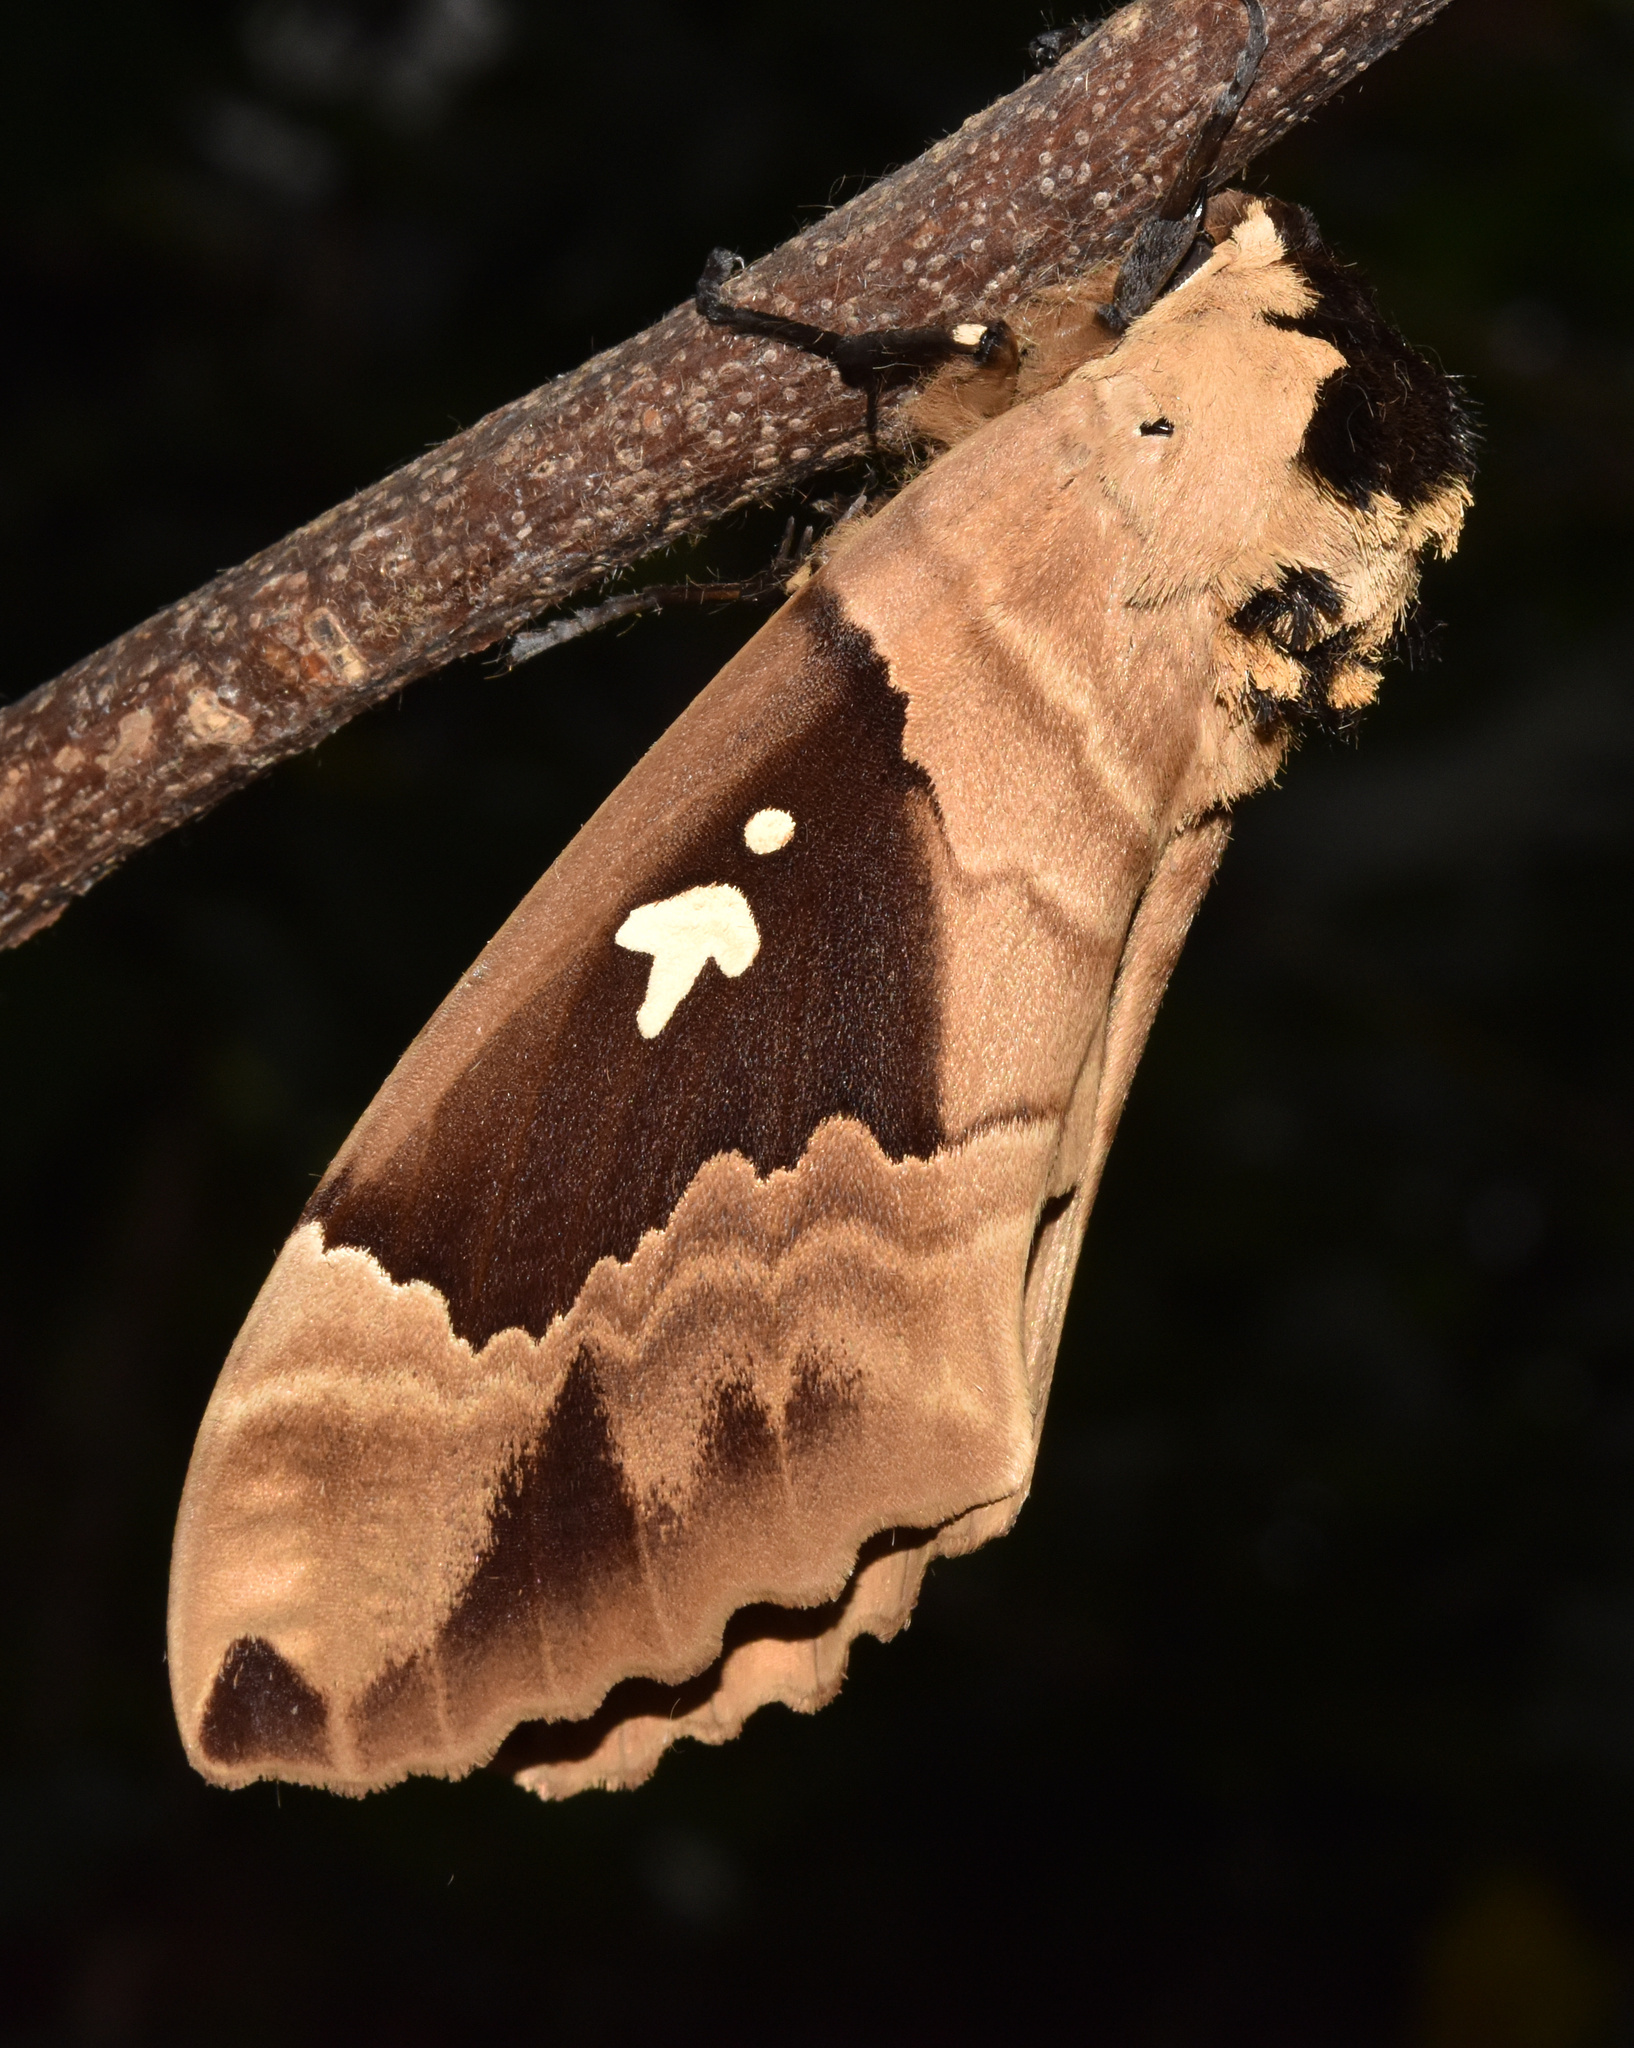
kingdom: Animalia
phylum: Arthropoda
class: Insecta
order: Lepidoptera
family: Sphingidae
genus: Lophostethus
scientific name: Lophostethus dumolinii
